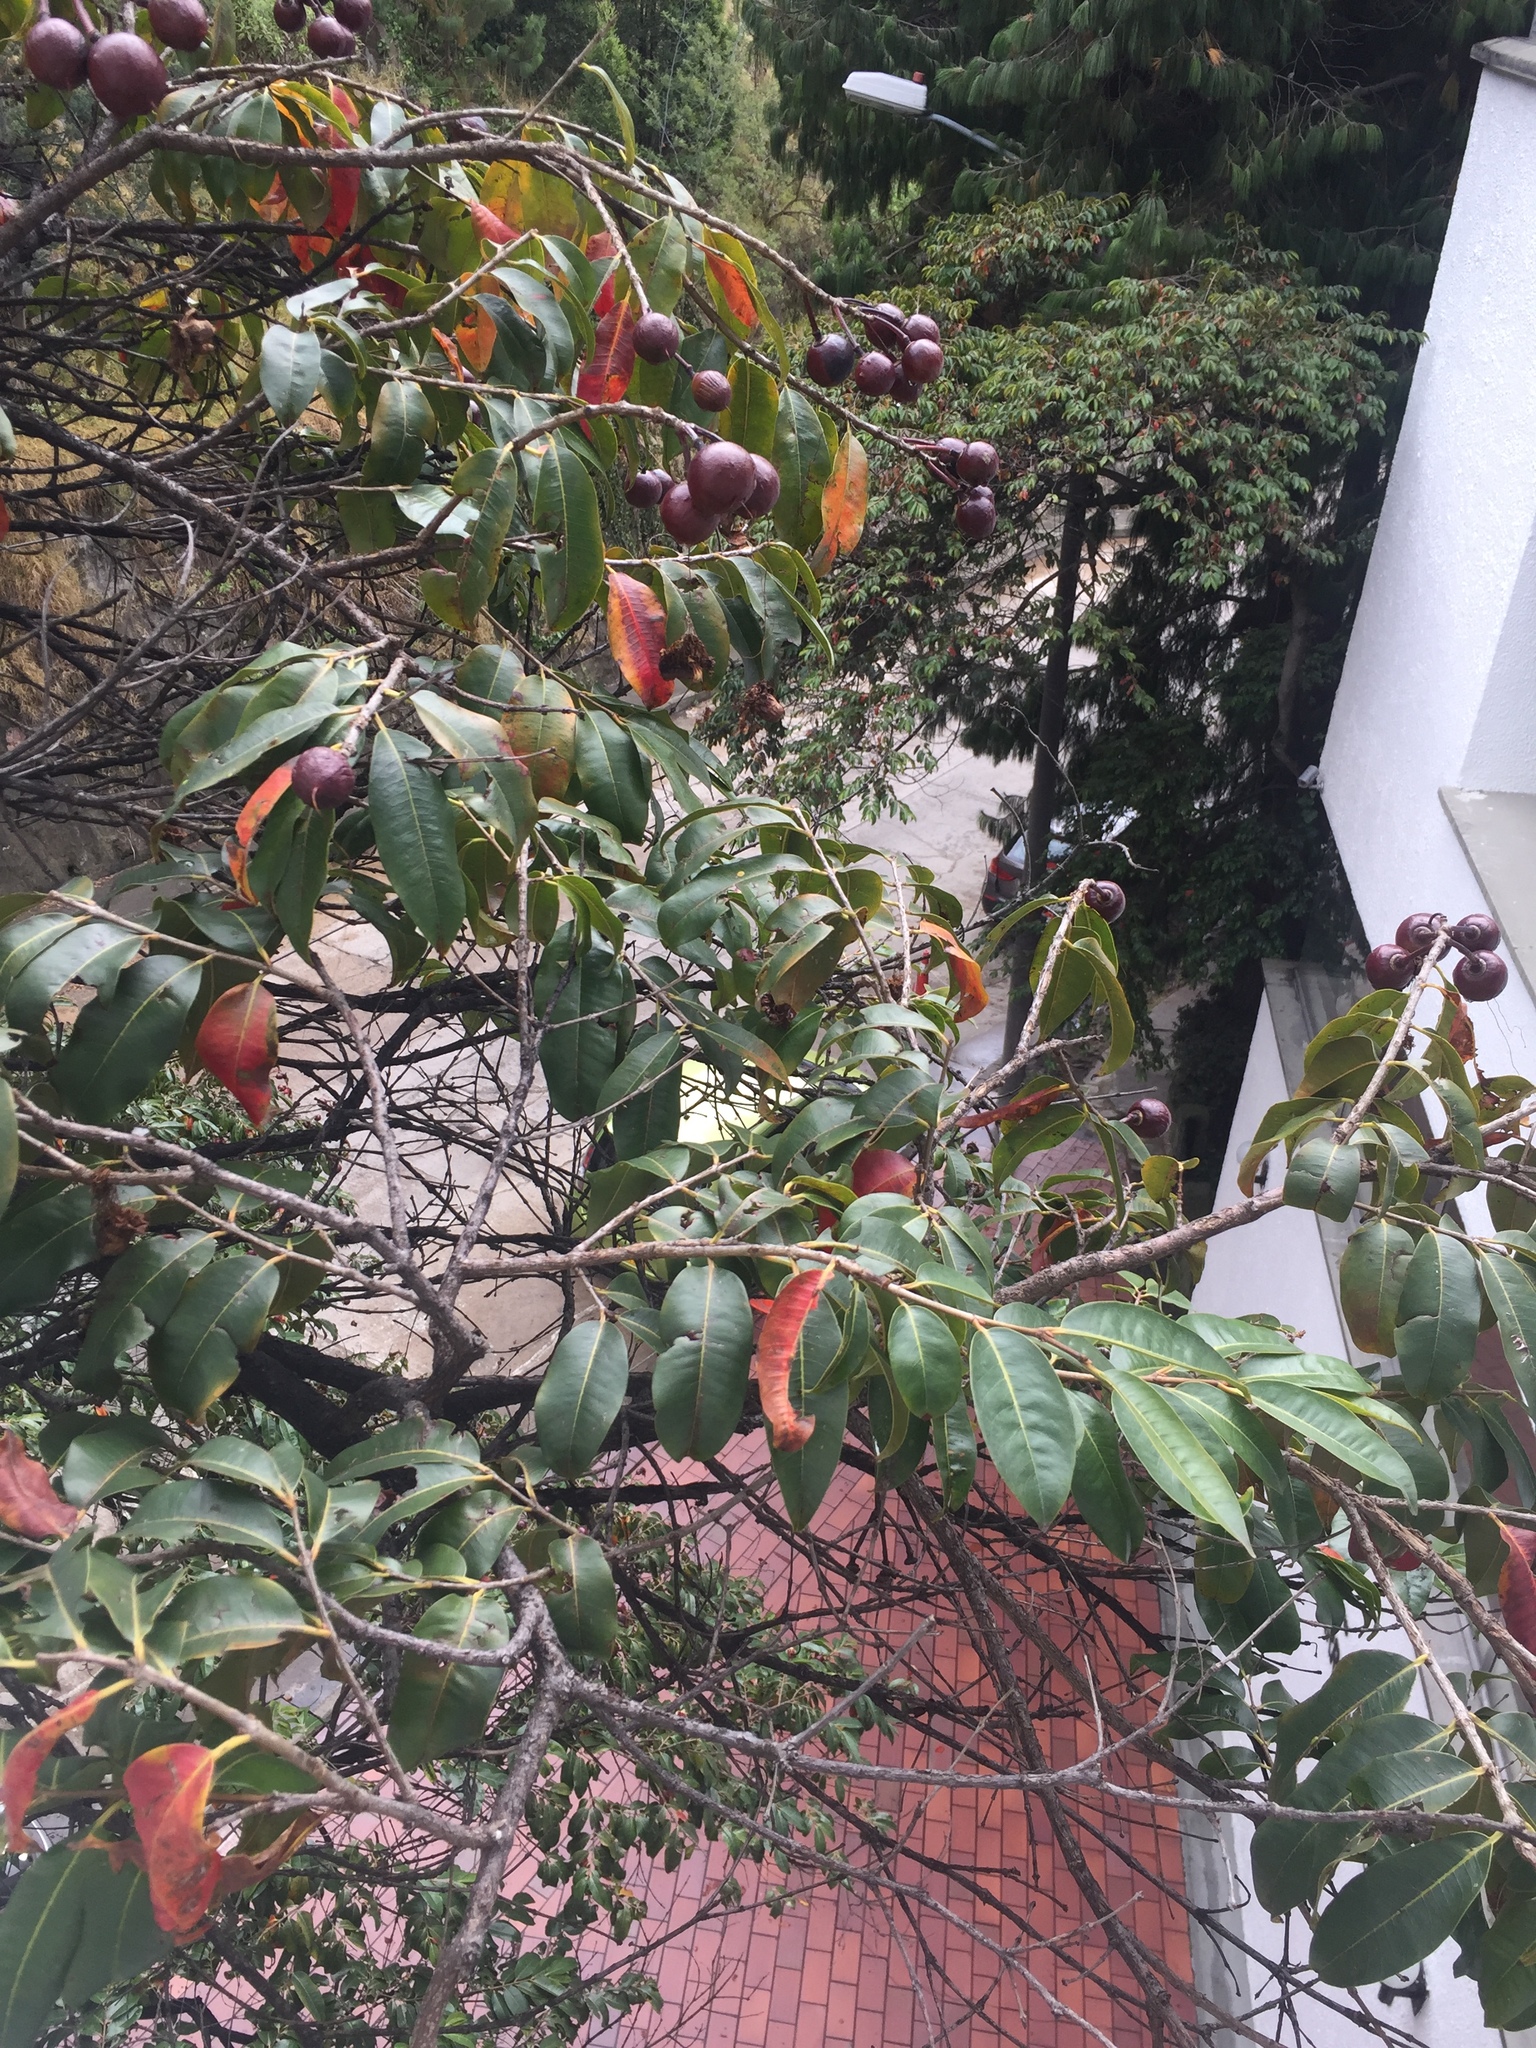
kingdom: Plantae
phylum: Tracheophyta
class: Magnoliopsida
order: Myrtales
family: Lythraceae
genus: Lafoensia
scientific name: Lafoensia acuminata
